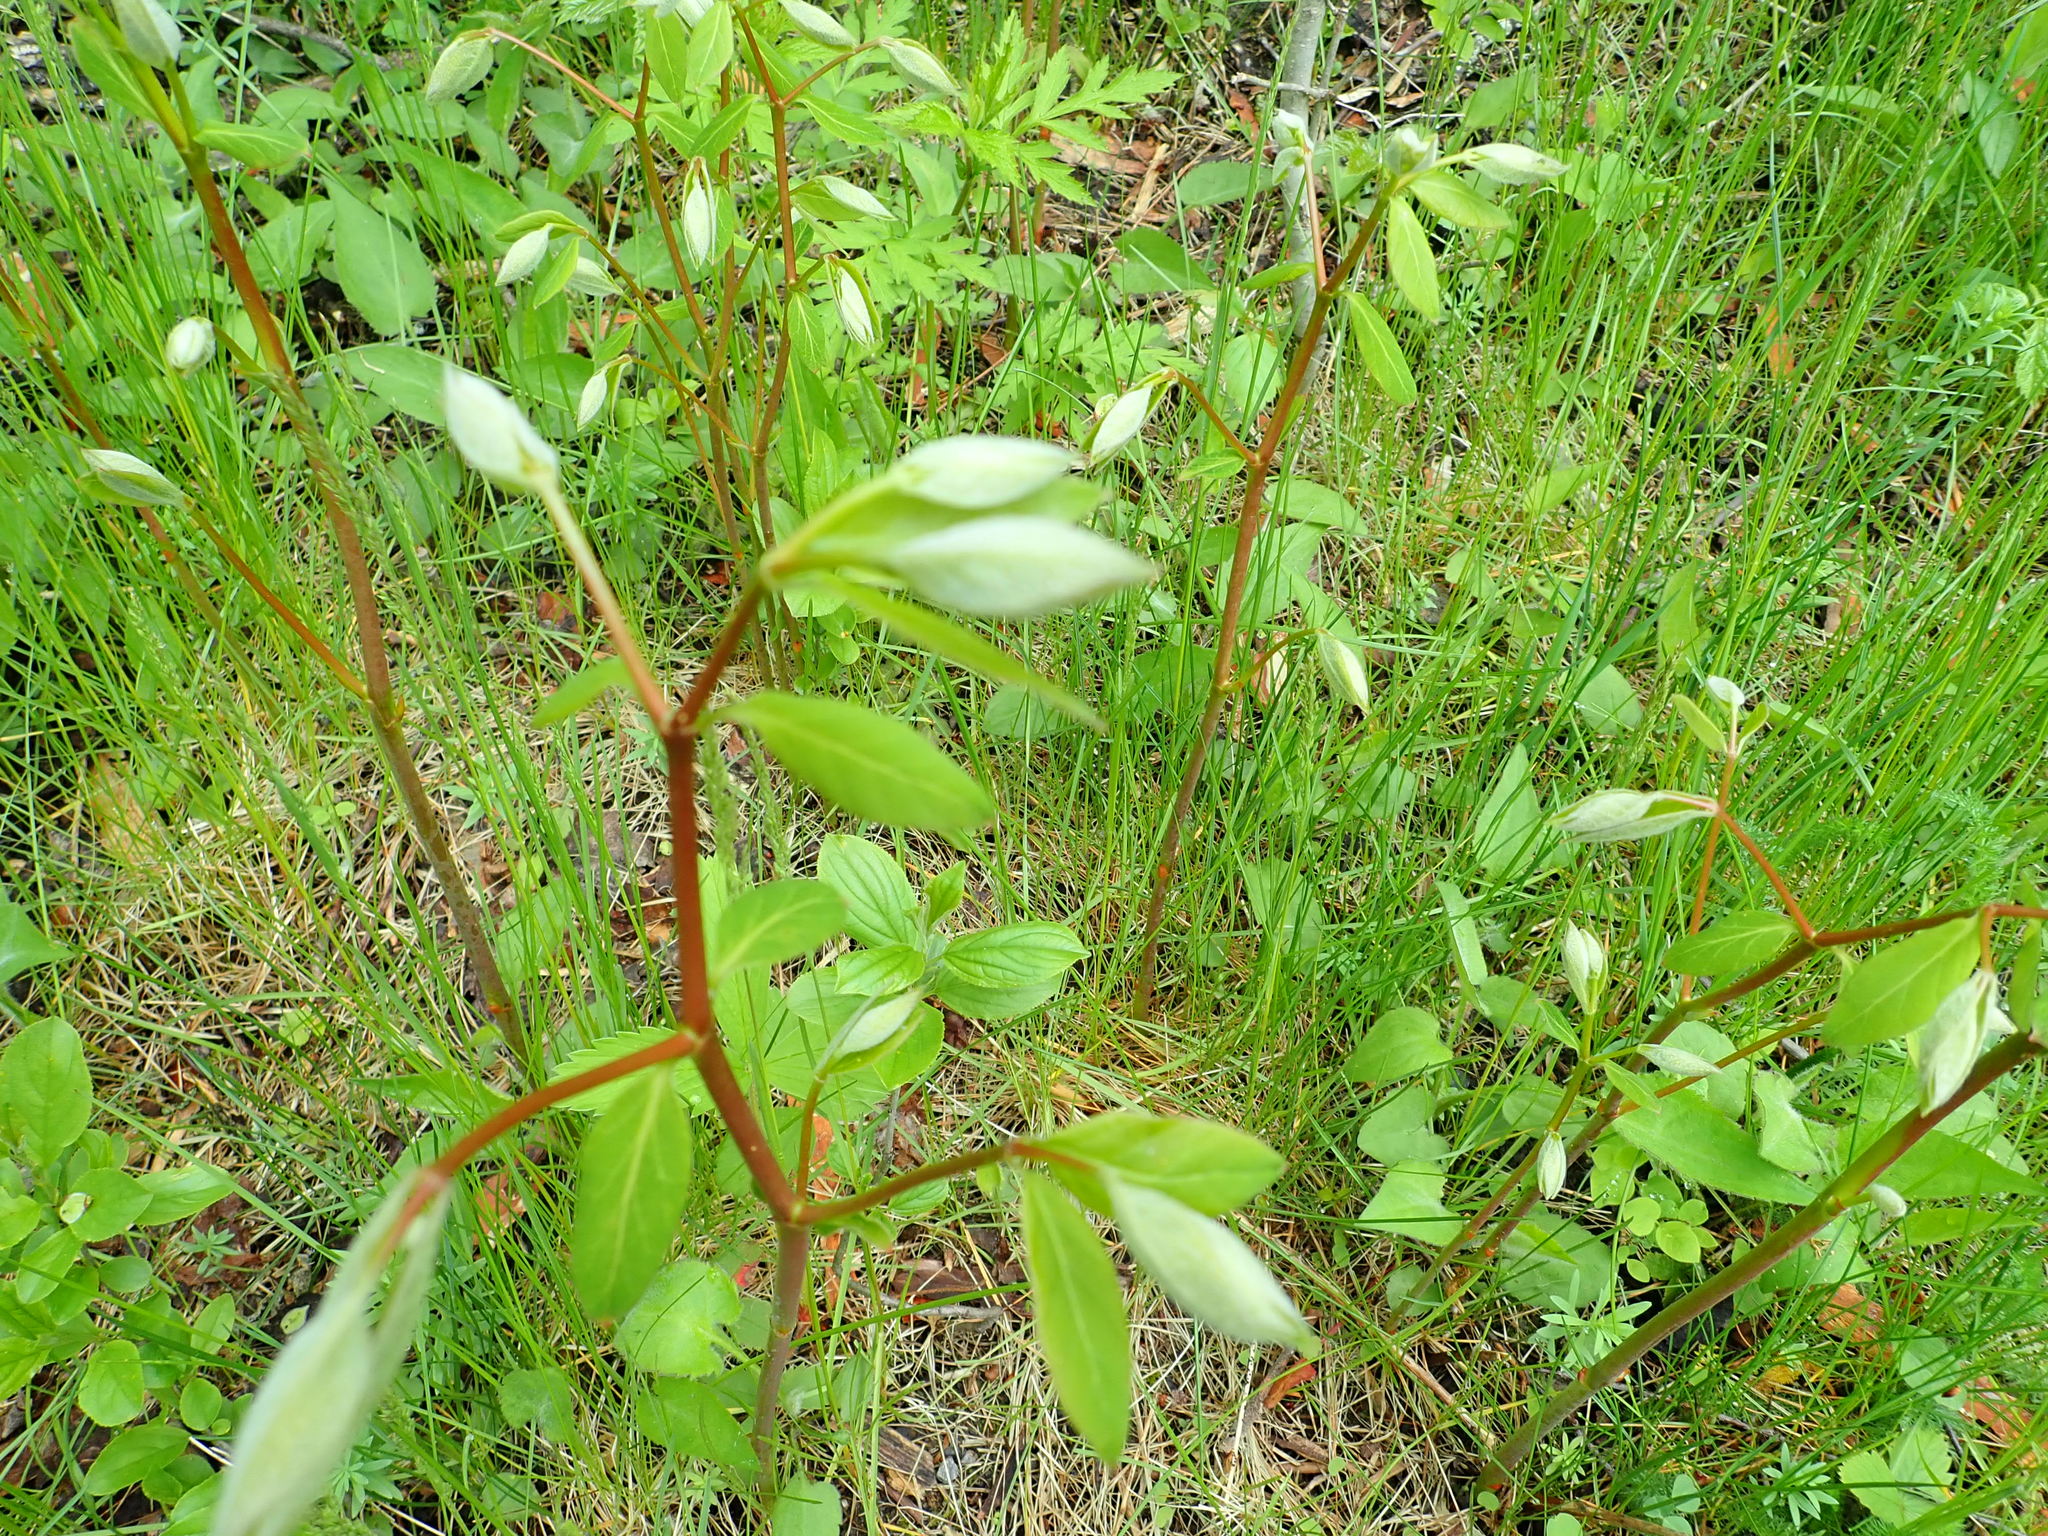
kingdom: Plantae
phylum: Tracheophyta
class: Magnoliopsida
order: Gentianales
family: Apocynaceae
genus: Apocynum
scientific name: Apocynum androsaemifolium
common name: Spreading dogbane
